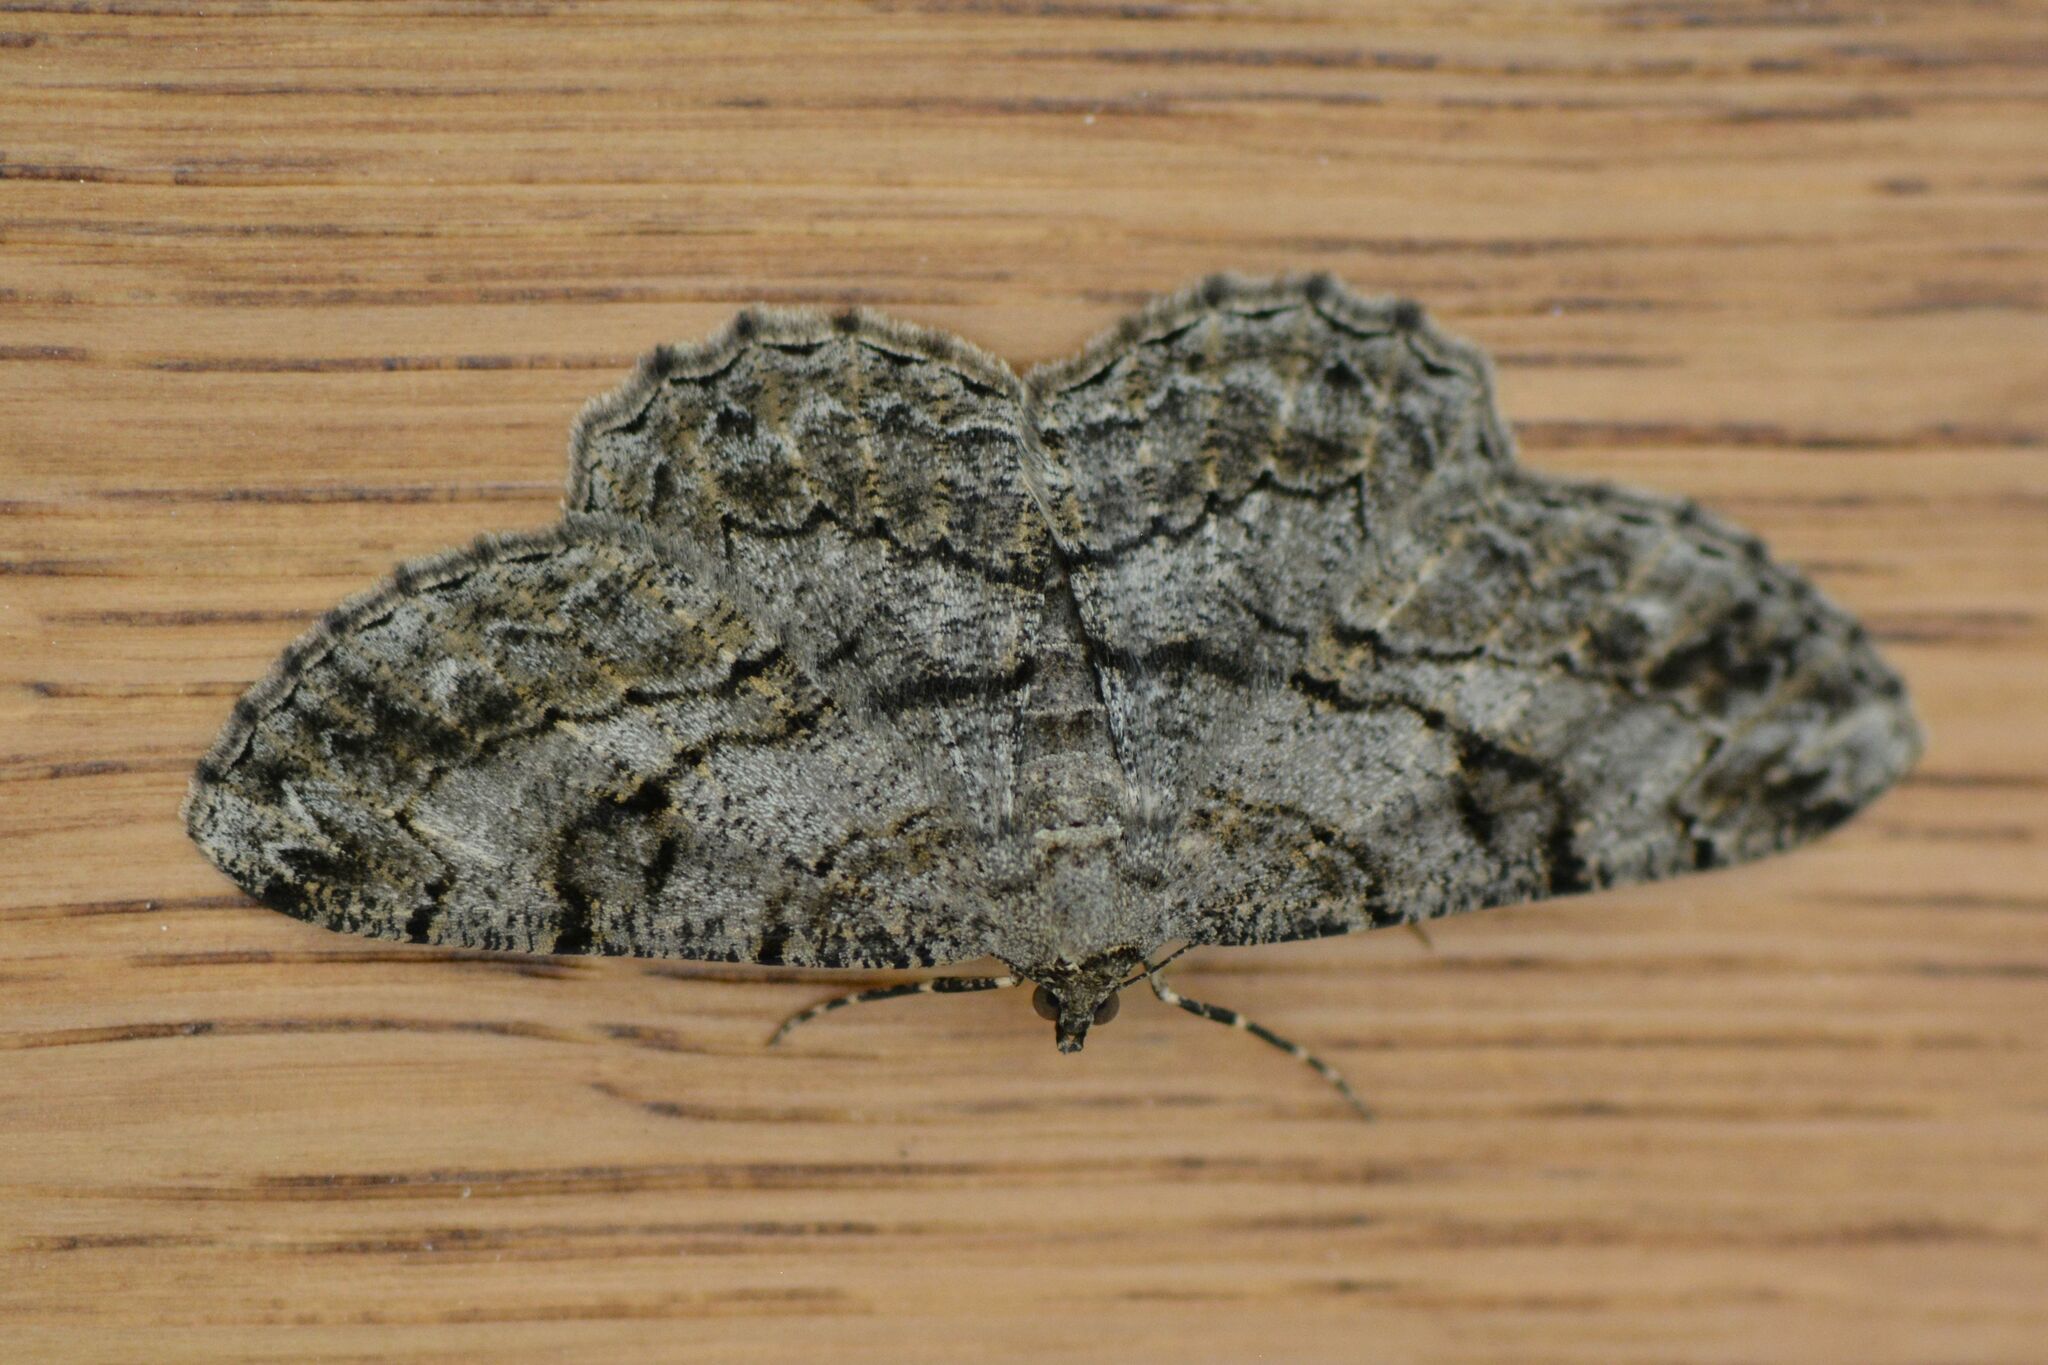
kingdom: Animalia
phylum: Arthropoda
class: Insecta
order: Lepidoptera
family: Geometridae
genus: Peribatodes
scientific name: Peribatodes rhomboidaria
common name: Willow beauty
